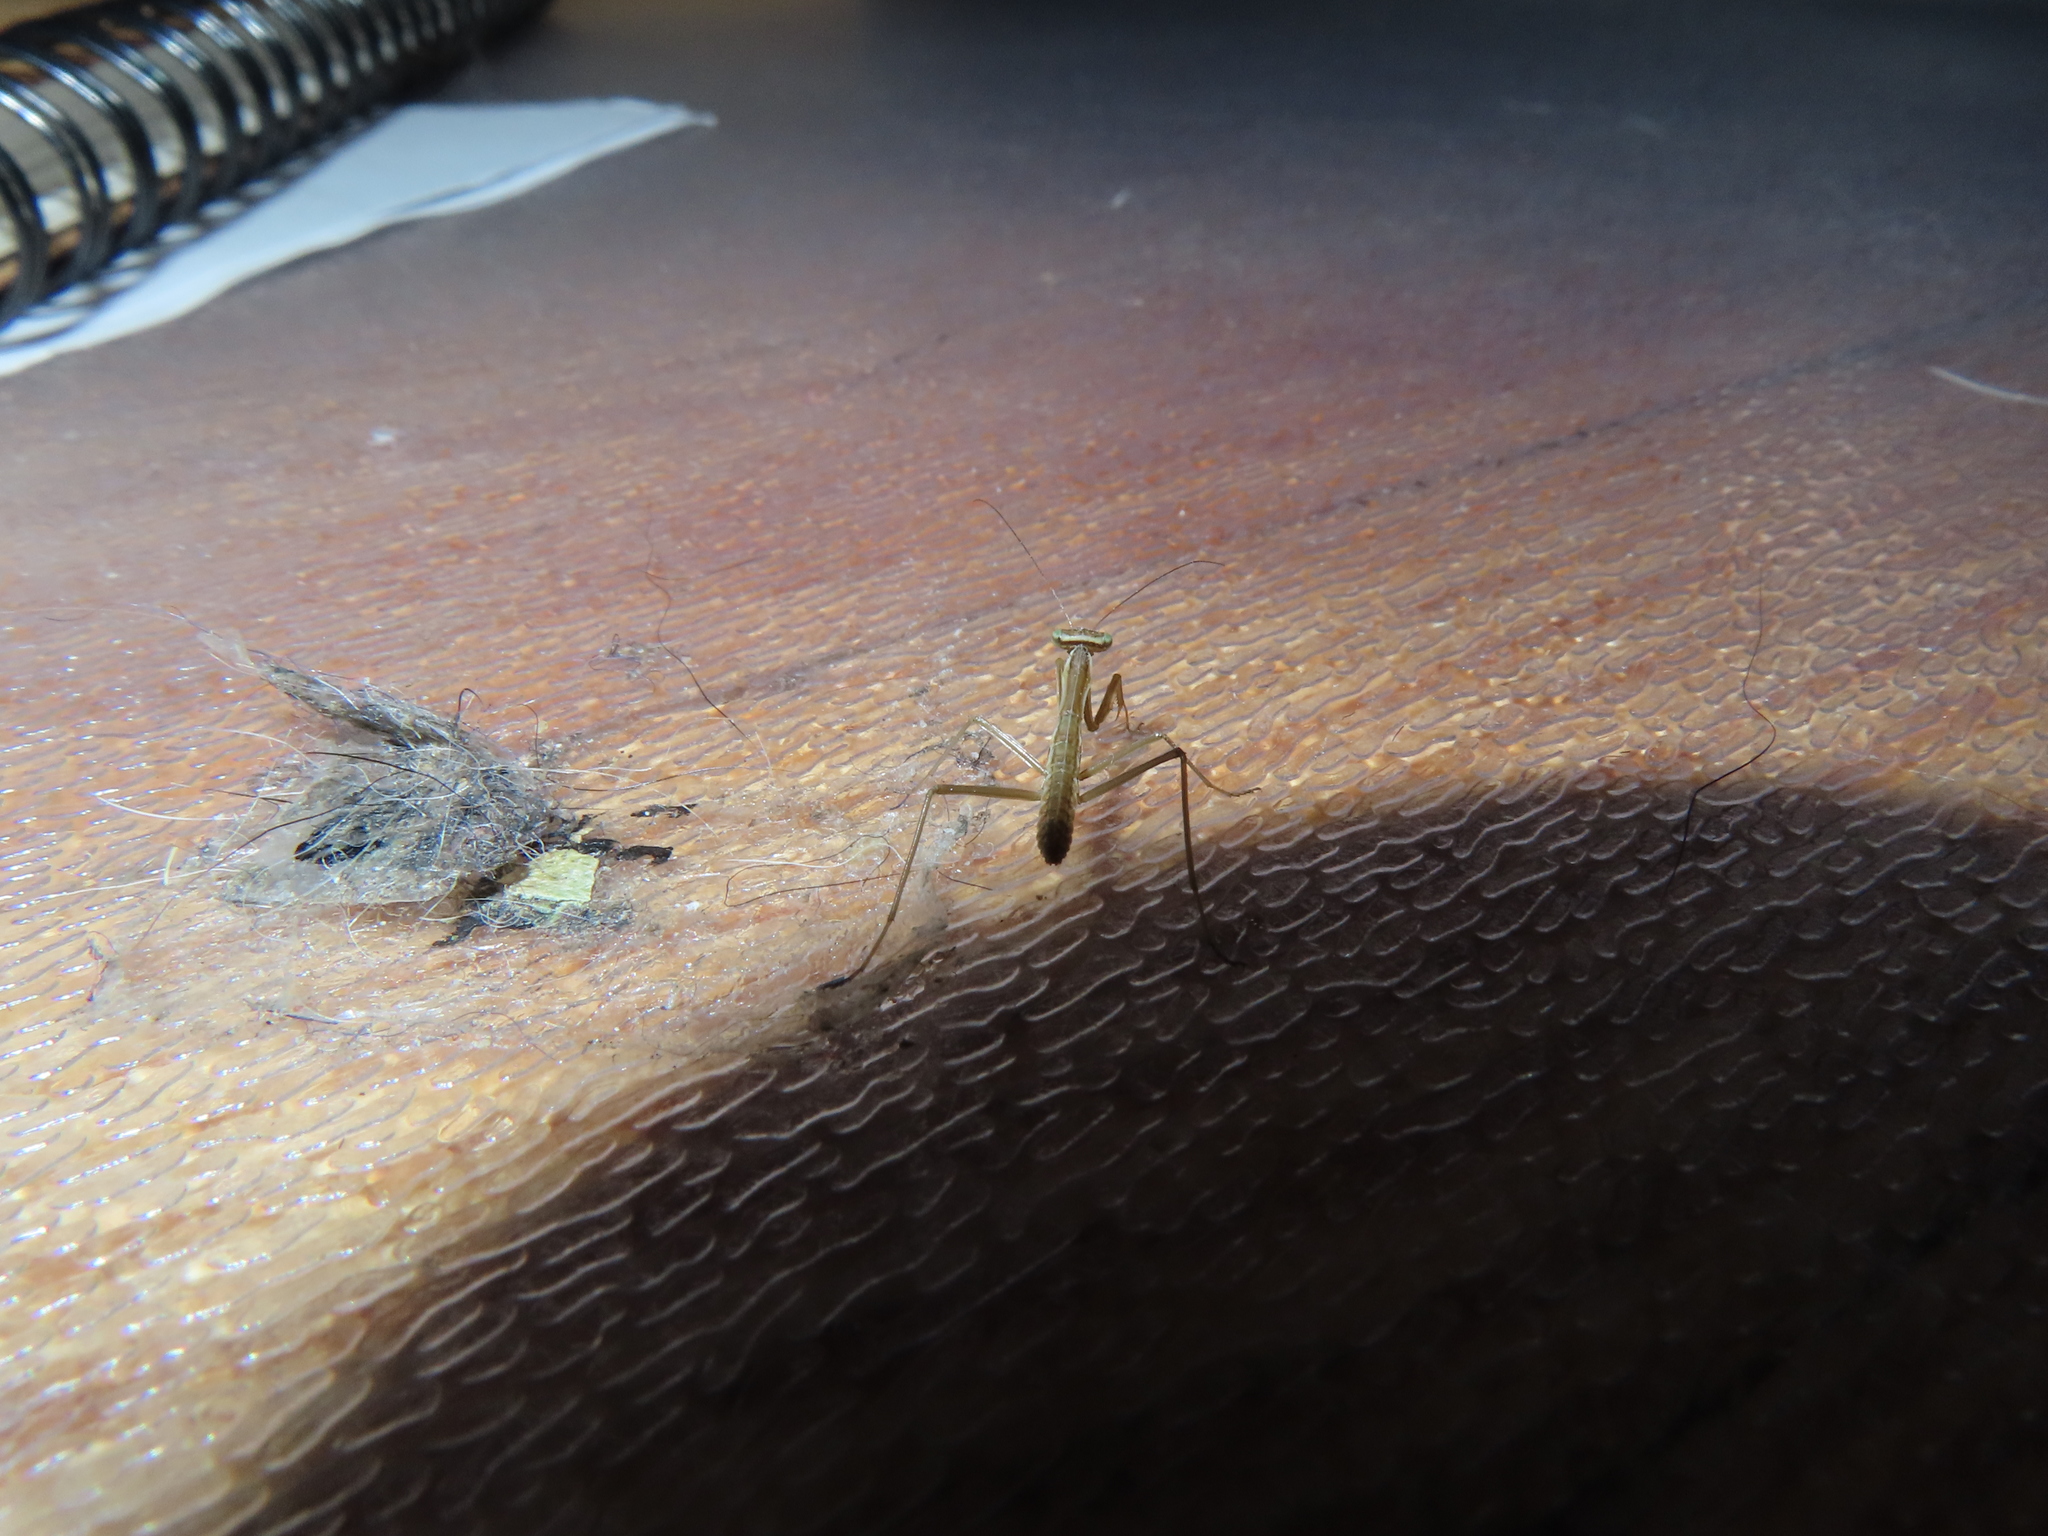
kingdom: Animalia
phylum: Arthropoda
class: Insecta
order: Mantodea
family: Mantidae
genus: Tenodera
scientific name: Tenodera sinensis
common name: Chinese mantis
